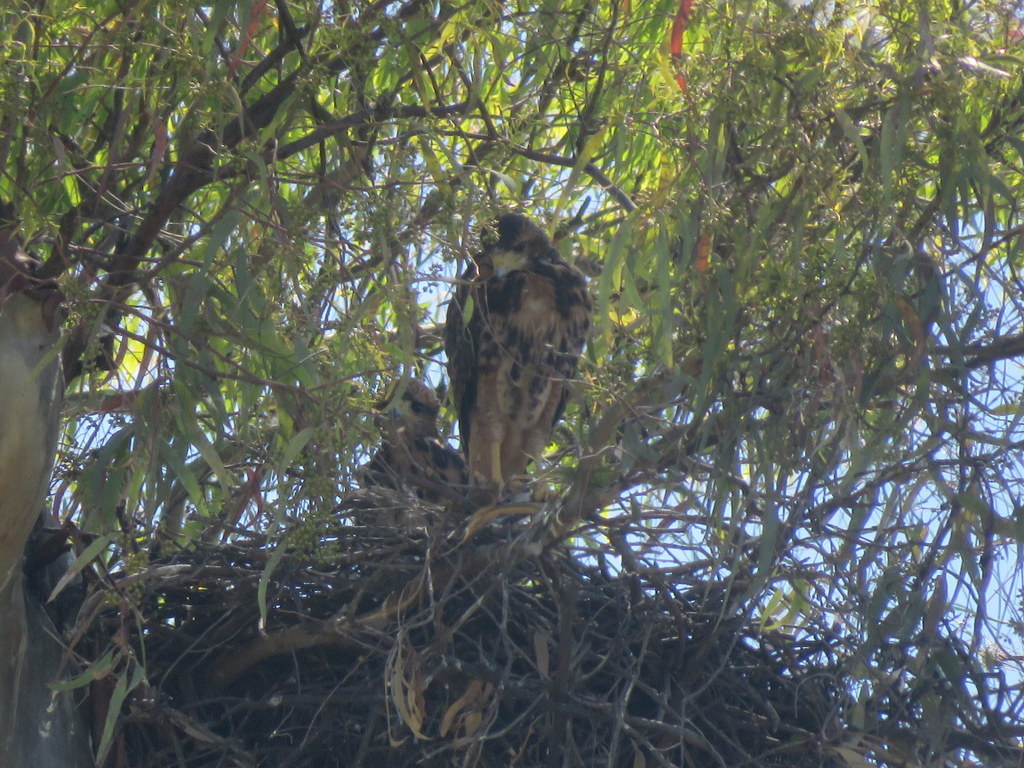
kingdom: Animalia
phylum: Chordata
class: Aves
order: Accipitriformes
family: Accipitridae
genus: Parabuteo
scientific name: Parabuteo unicinctus
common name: Harris's hawk
